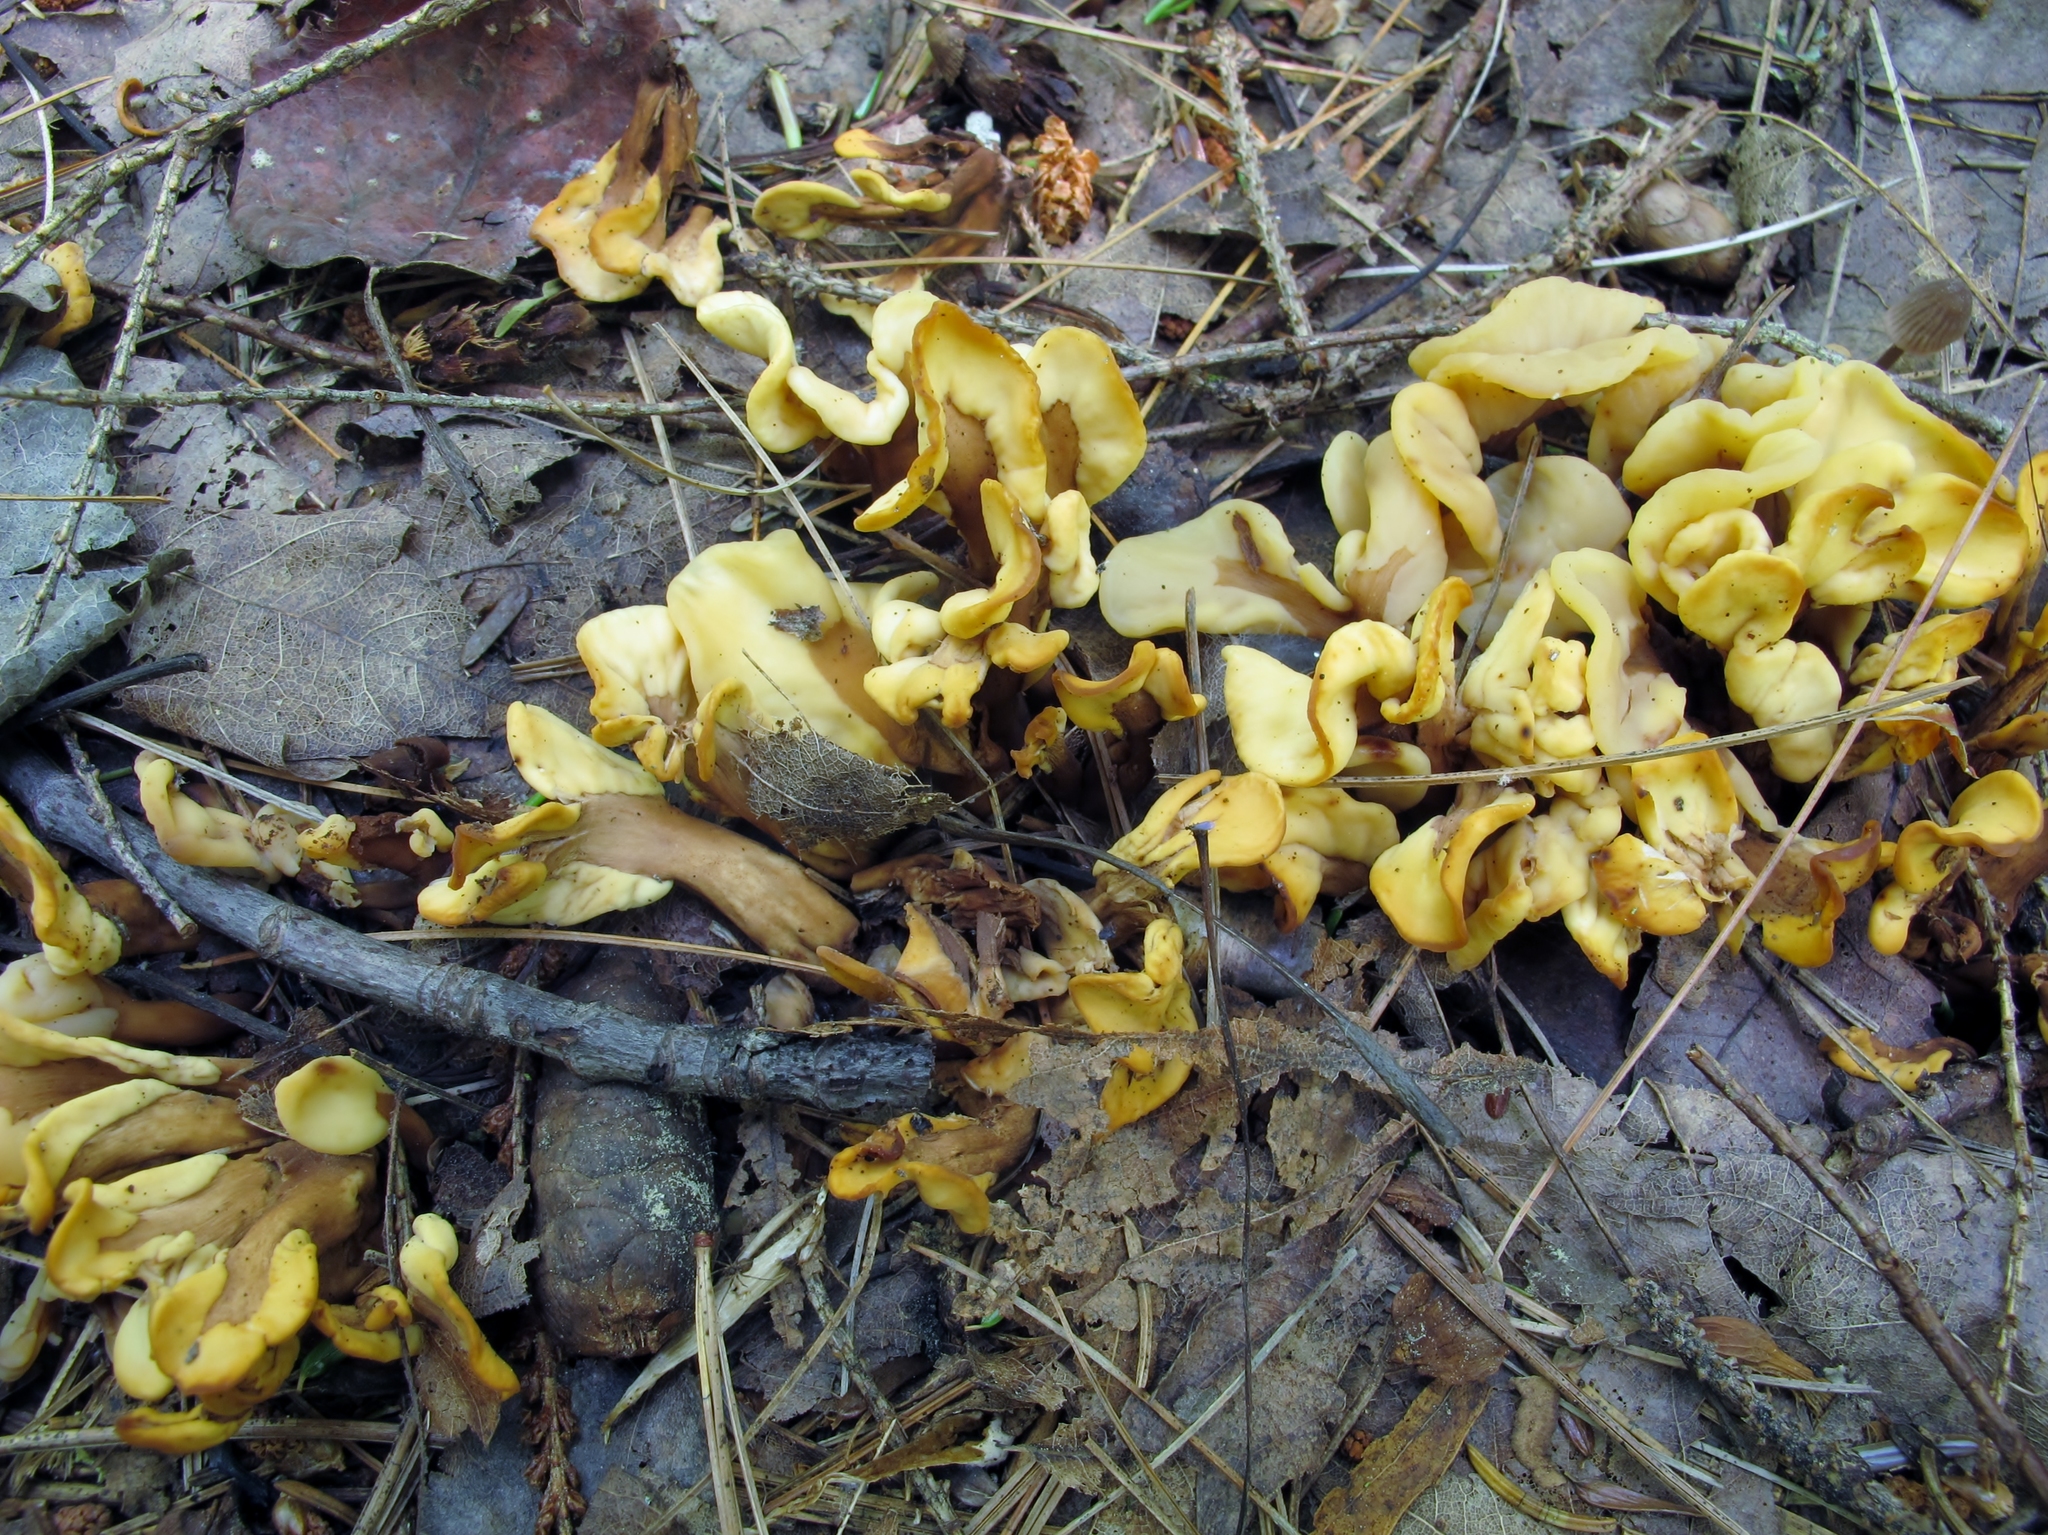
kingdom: Fungi
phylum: Ascomycota
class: Leotiomycetes
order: Rhytismatales
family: Cudoniaceae
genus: Spathulariopsis
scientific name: Spathulariopsis velutipes
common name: Velvet-foot fairy fan
